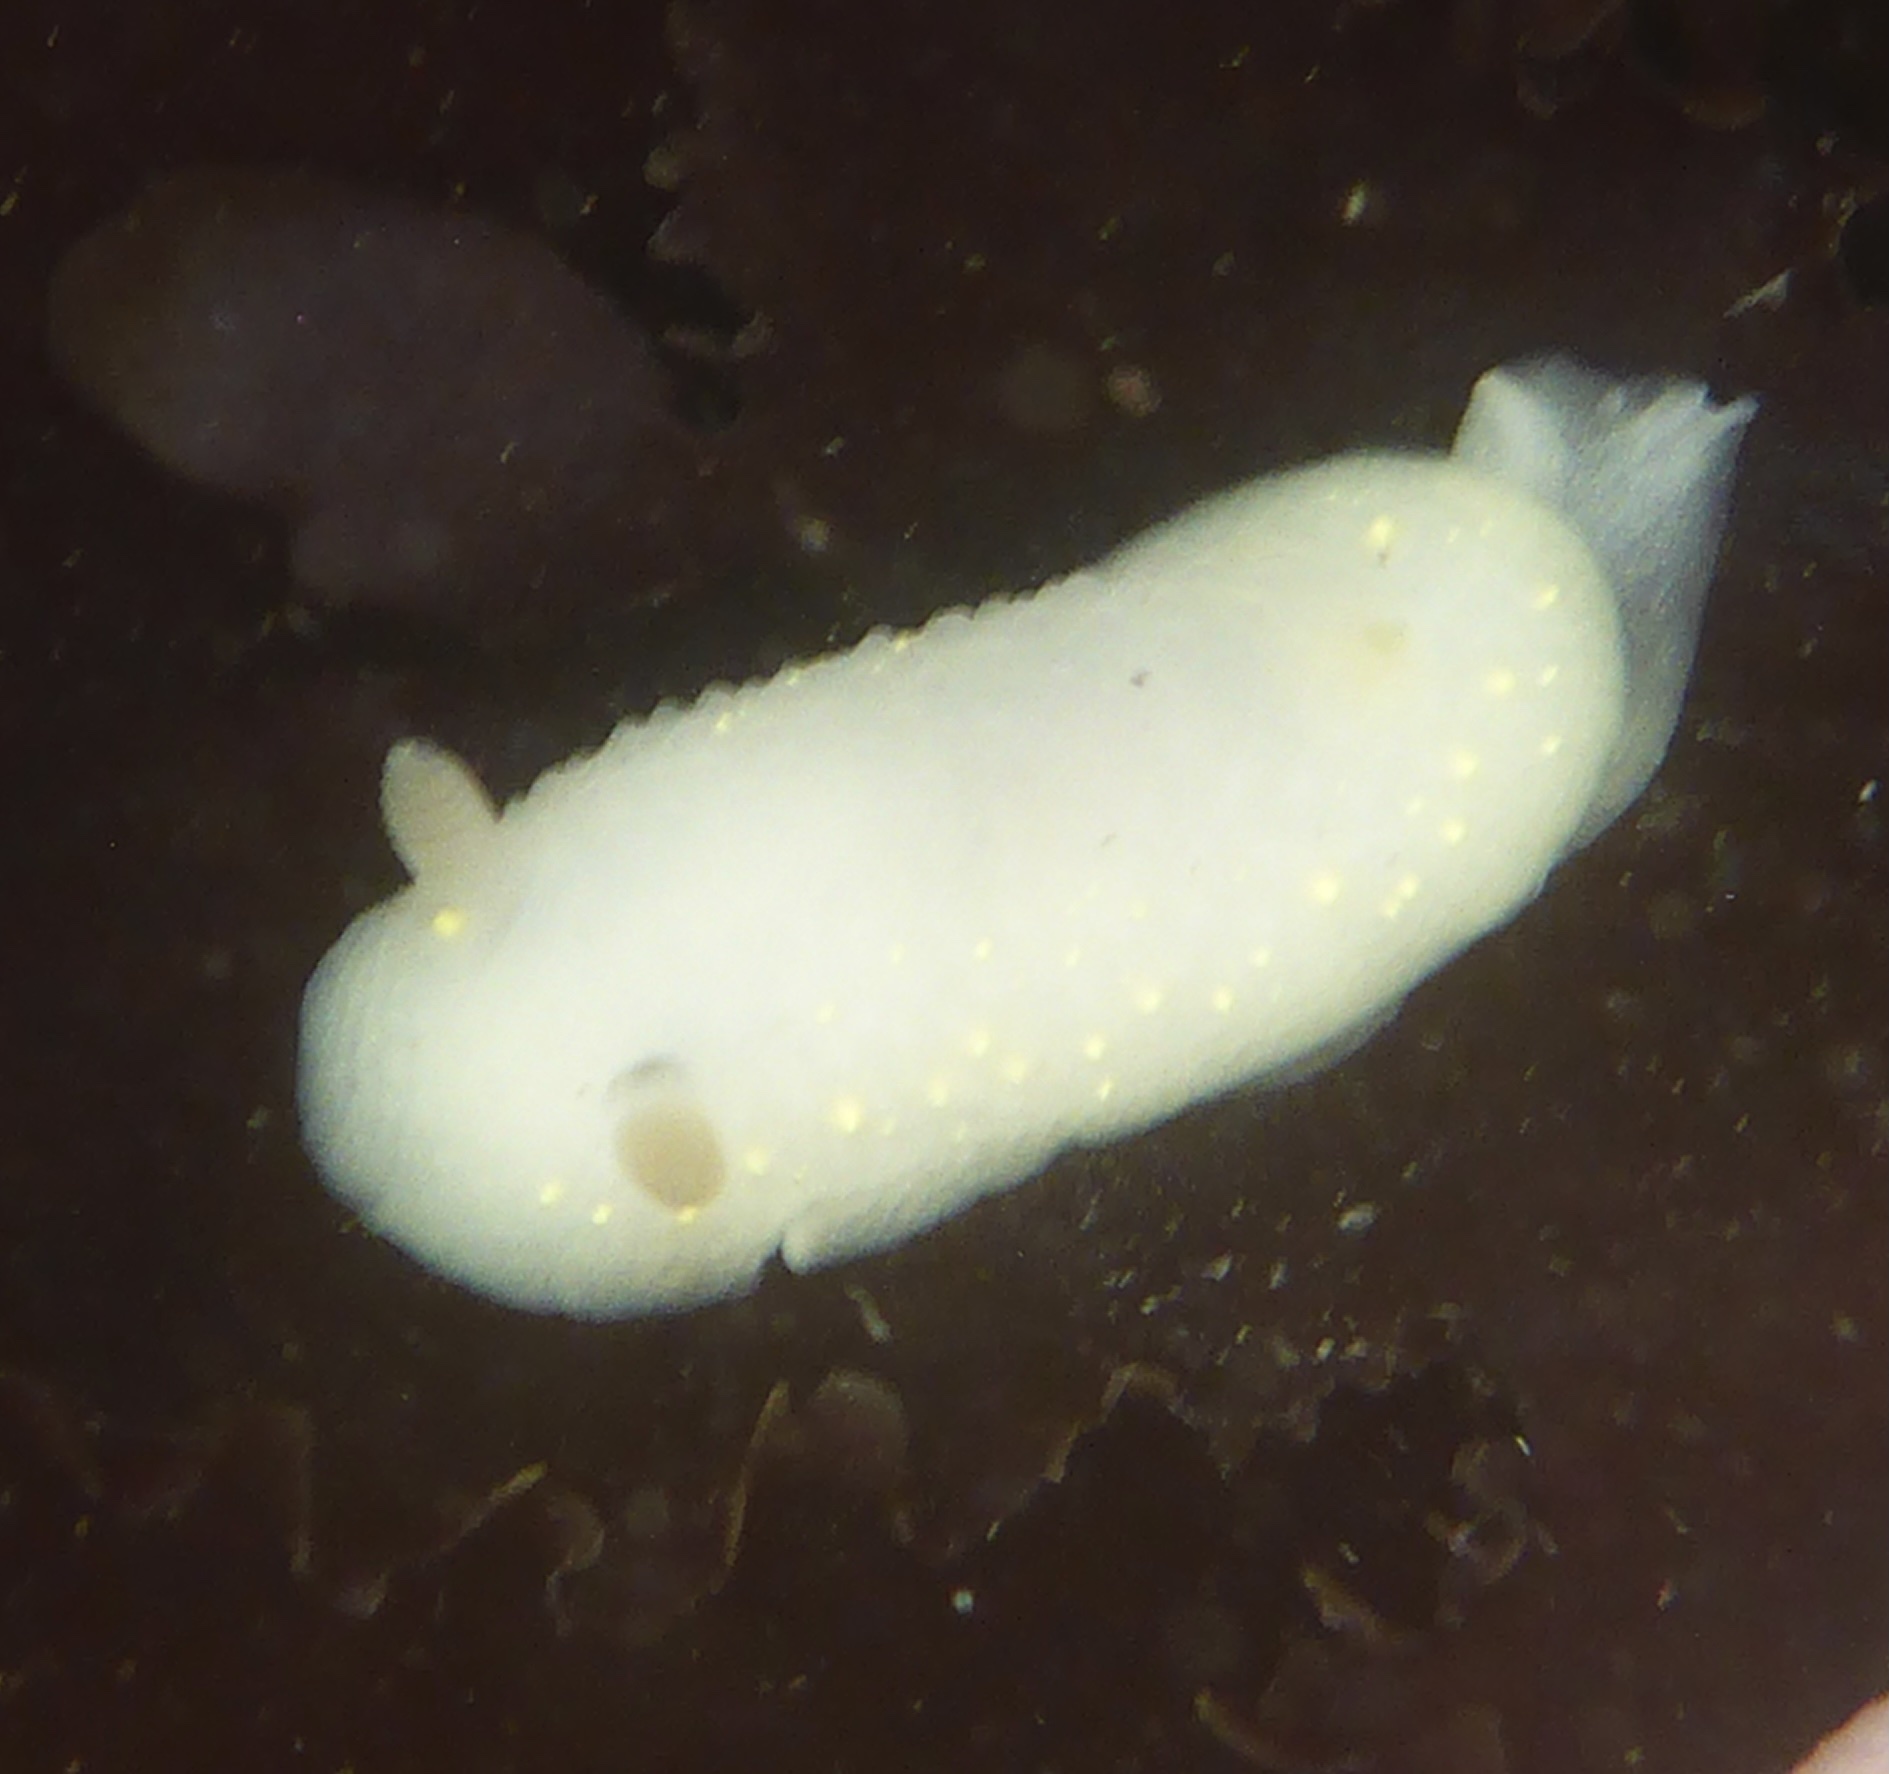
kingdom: Animalia
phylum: Mollusca
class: Gastropoda
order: Nudibranchia
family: Cadlinidae
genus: Cadlina
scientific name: Cadlina modesta
